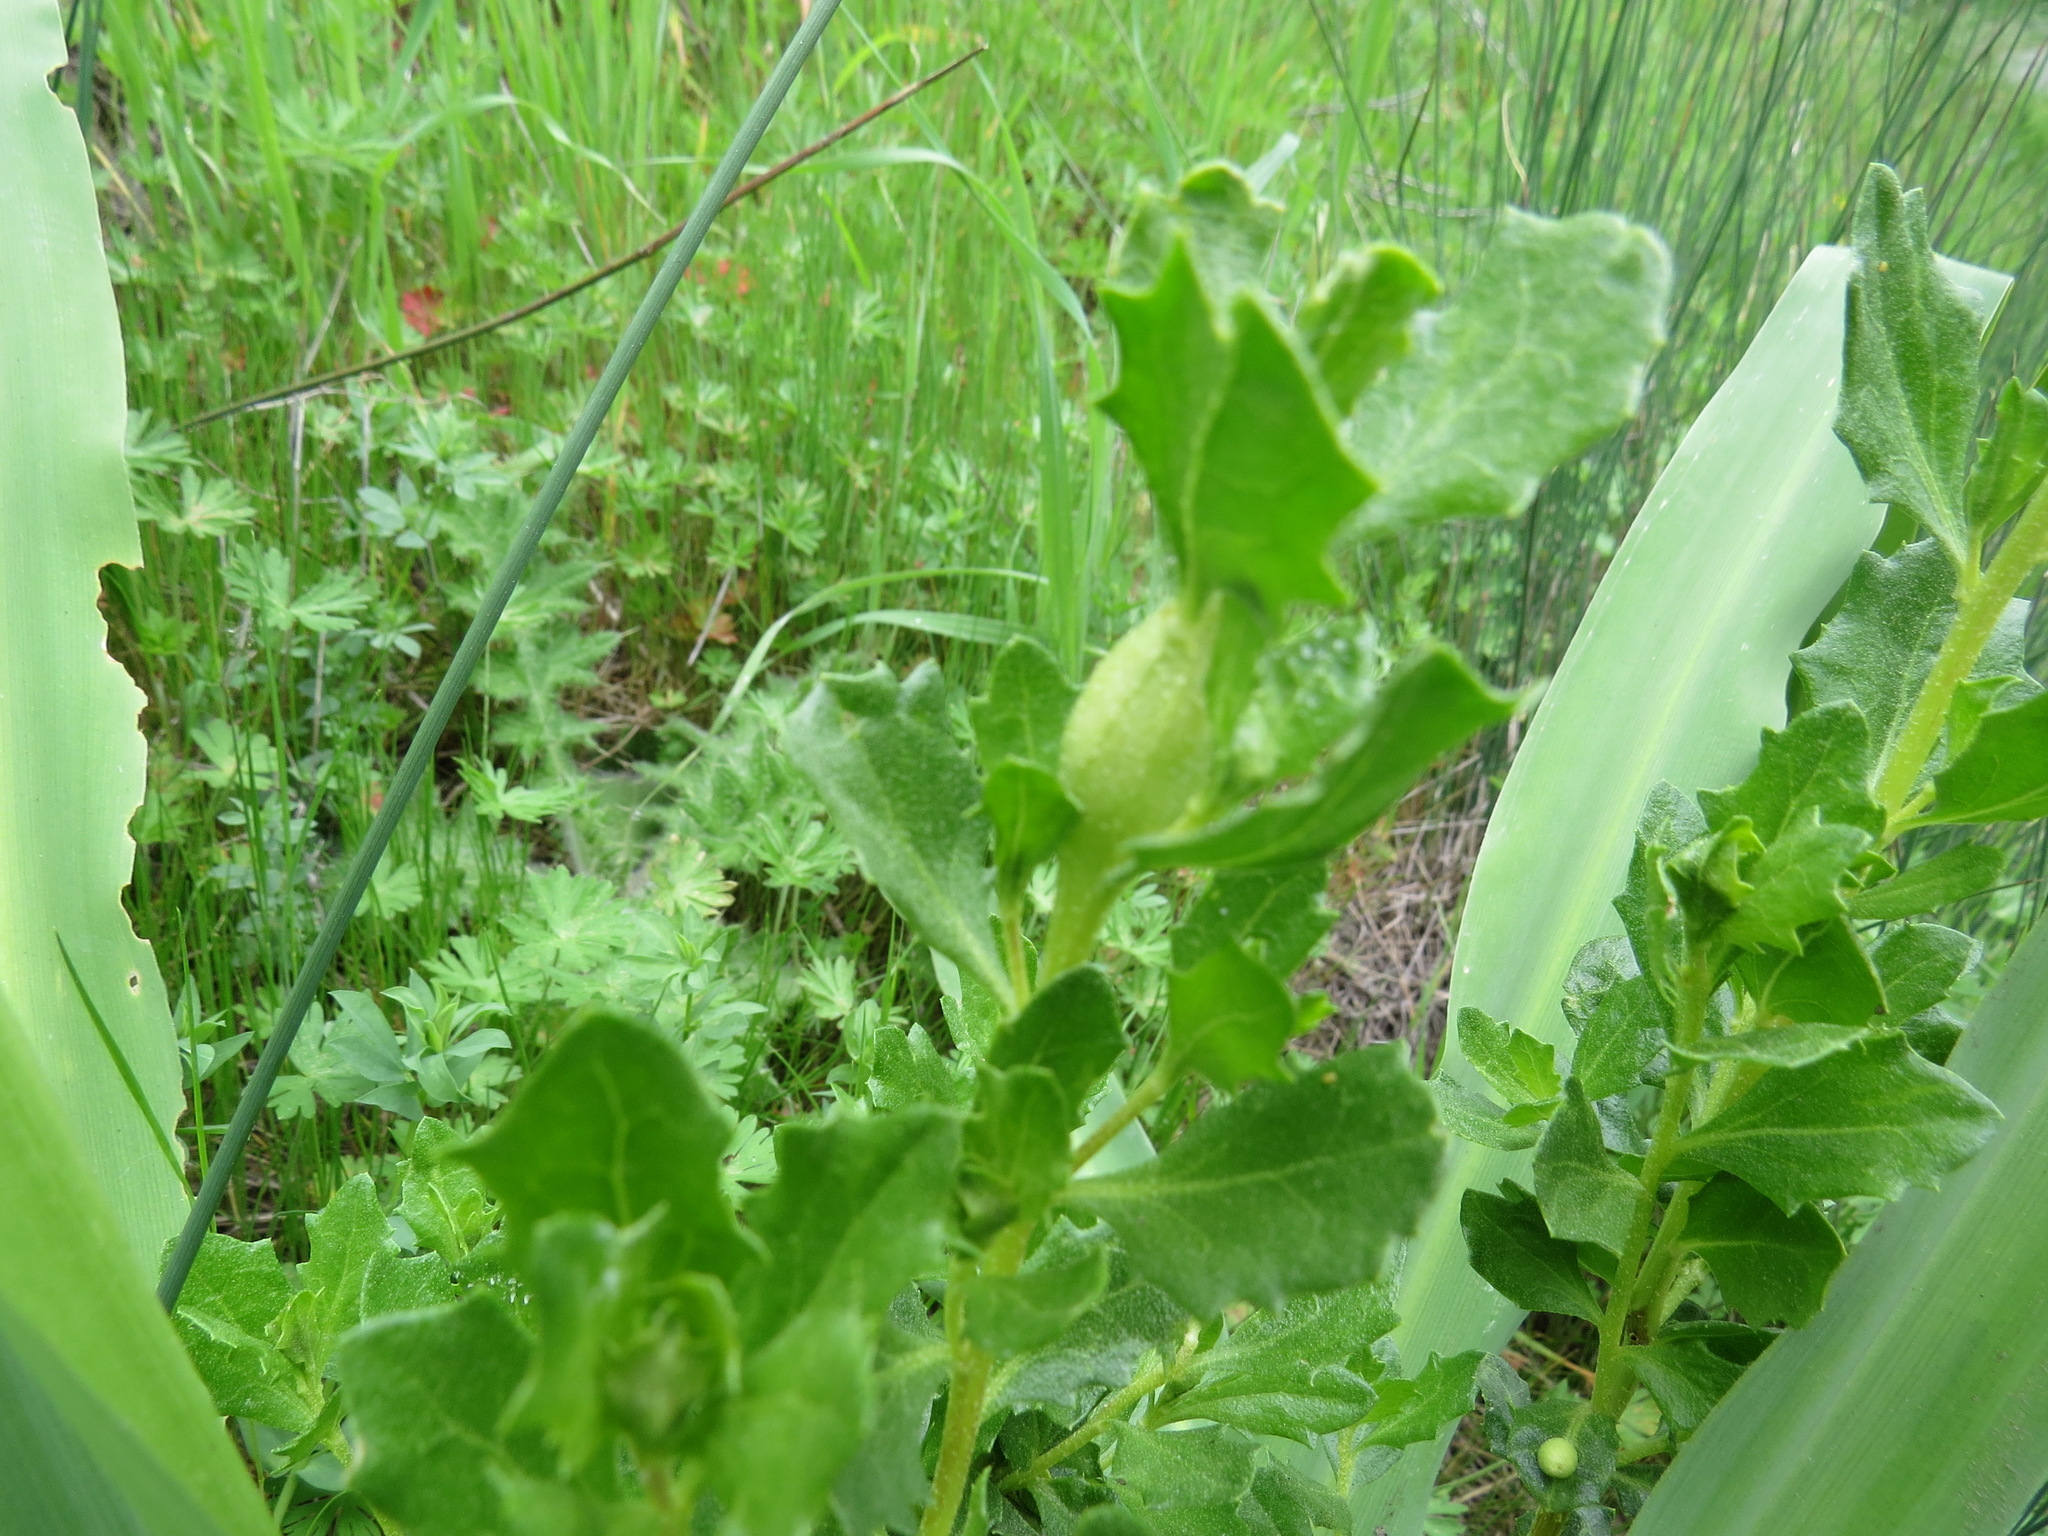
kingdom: Animalia
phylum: Arthropoda
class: Insecta
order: Lepidoptera
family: Gelechiidae
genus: Gnorimoschema
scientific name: Gnorimoschema baccharisella
